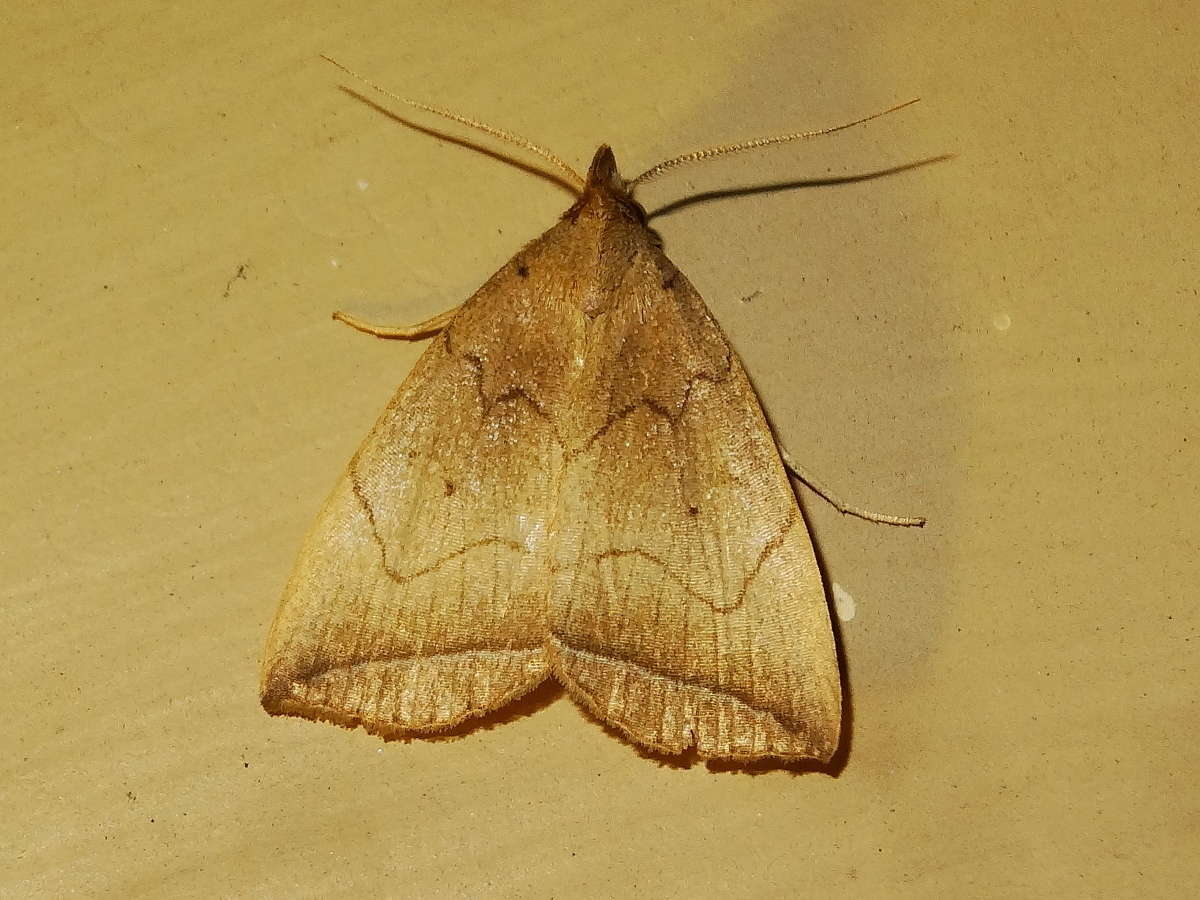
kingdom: Animalia
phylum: Arthropoda
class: Insecta
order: Lepidoptera
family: Erebidae
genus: Simplicia
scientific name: Simplicia armatalis
